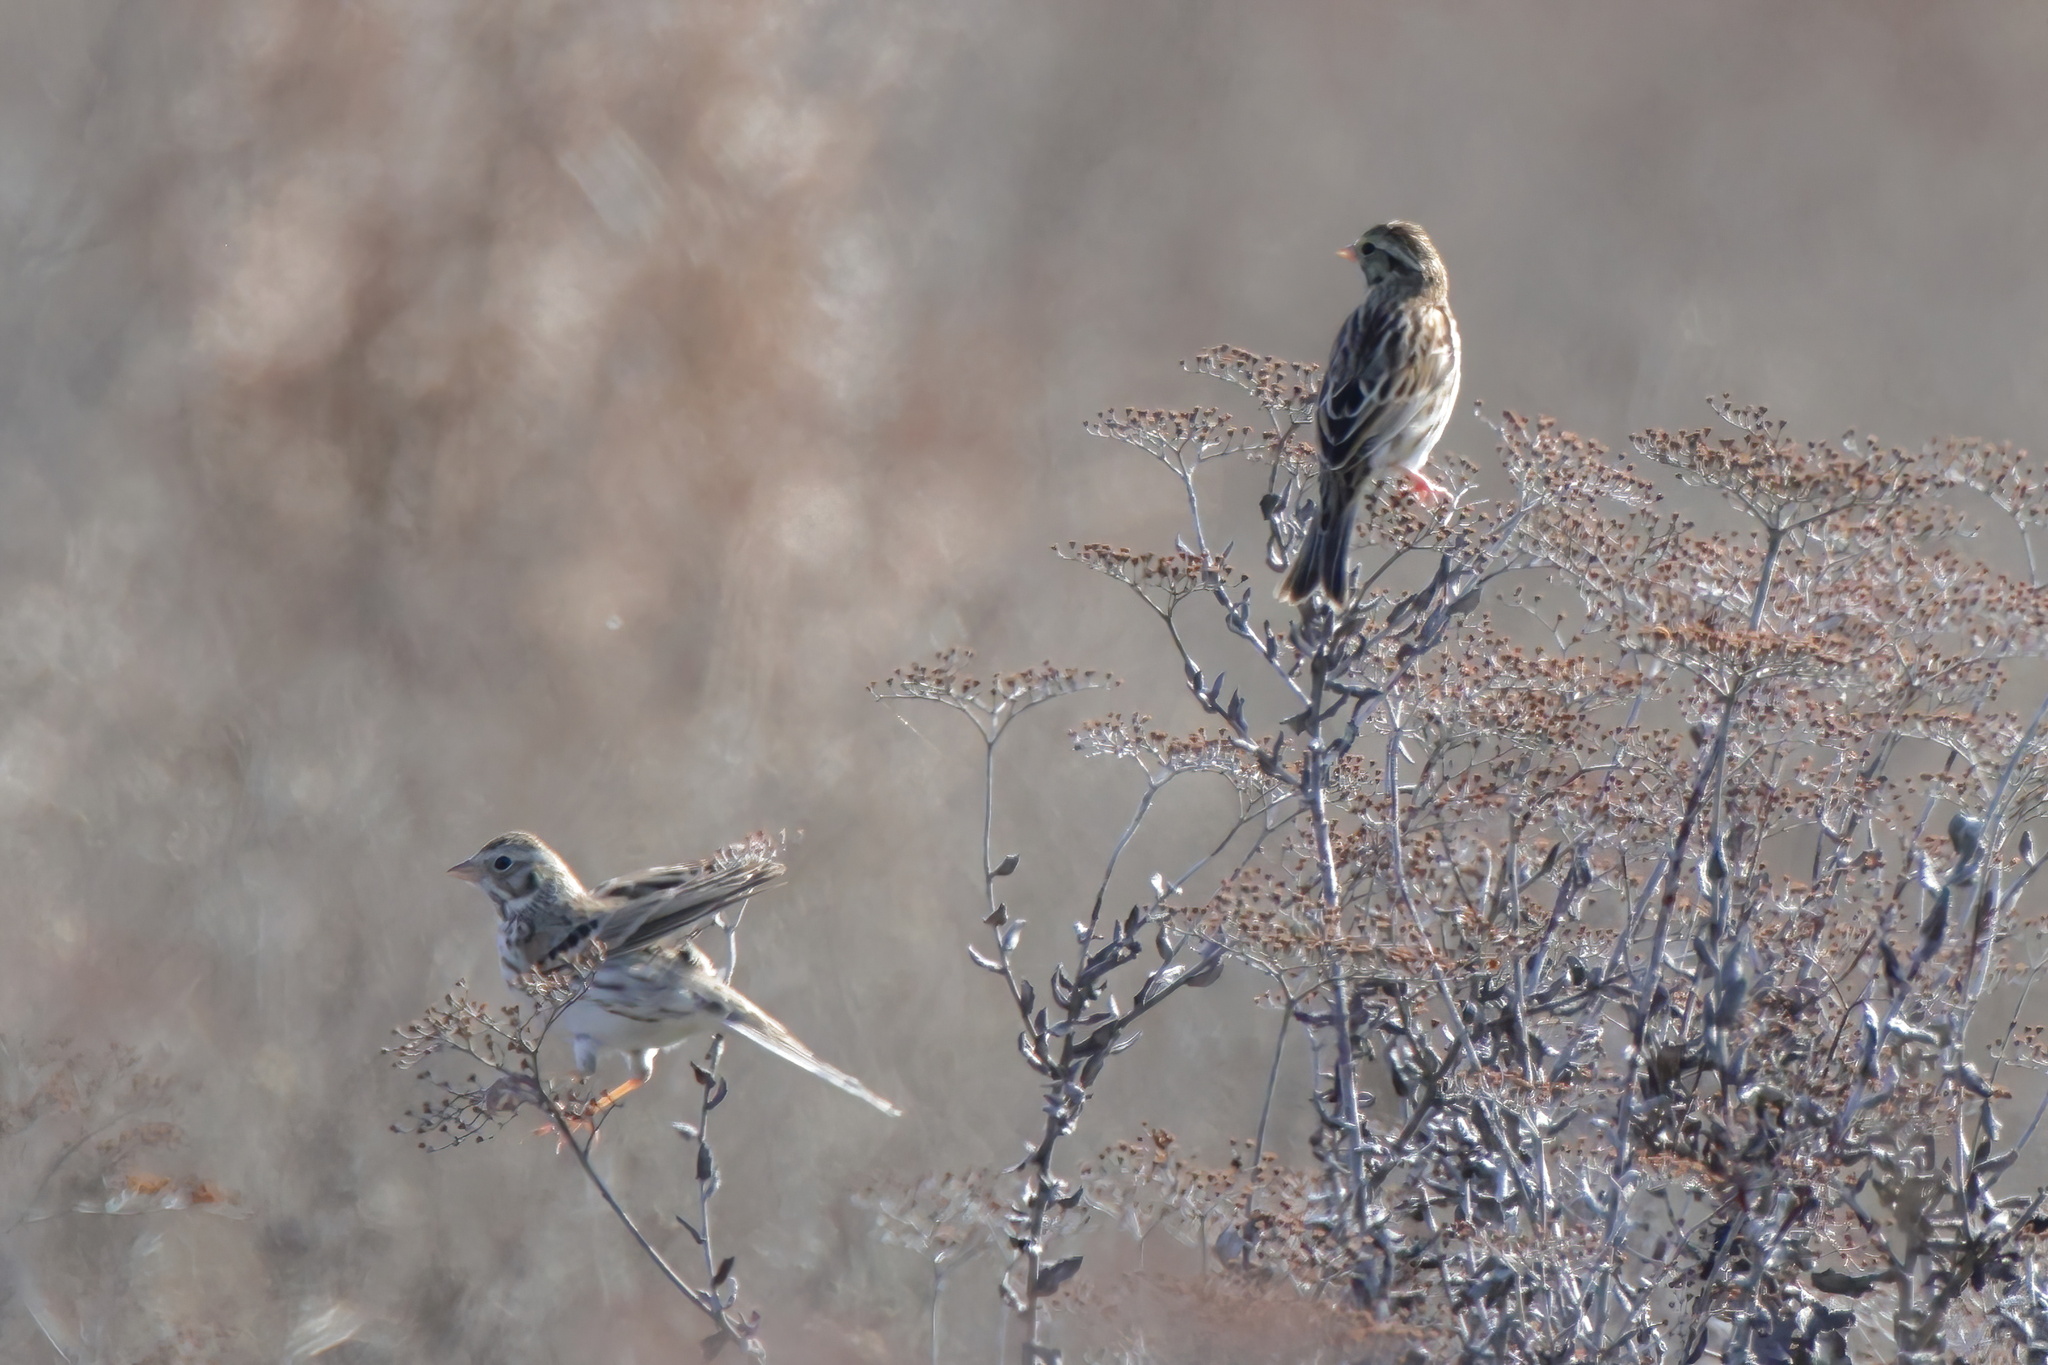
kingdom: Animalia
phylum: Chordata
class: Aves
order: Passeriformes
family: Passerellidae
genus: Passerculus
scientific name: Passerculus sandwichensis
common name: Savannah sparrow
